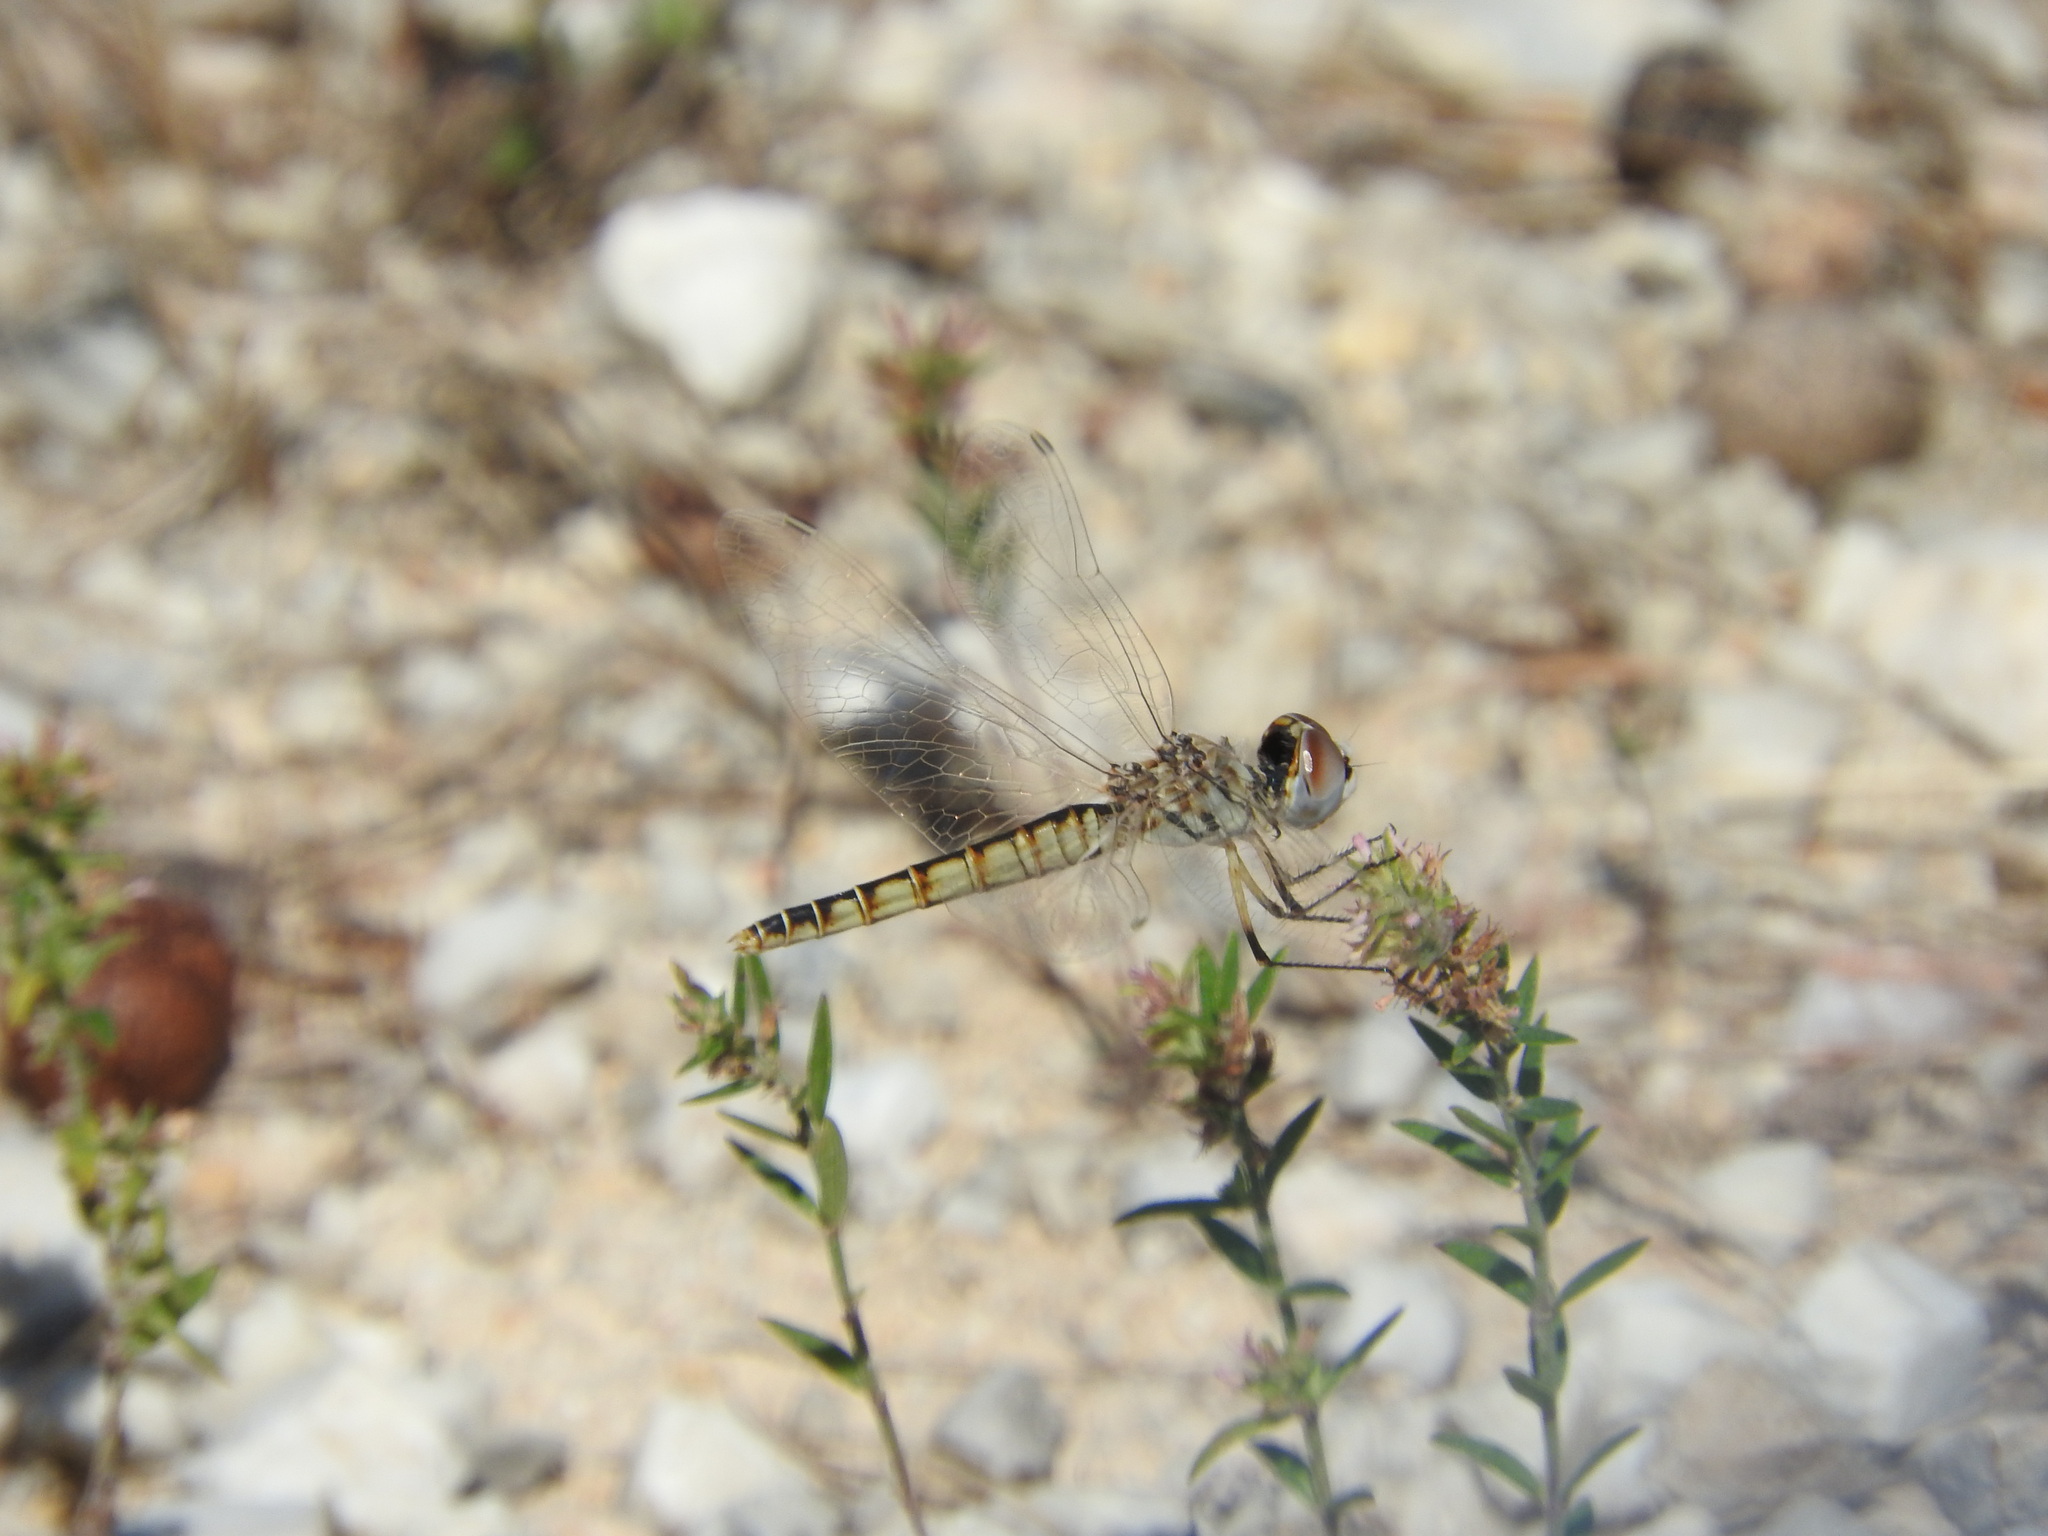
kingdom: Animalia
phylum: Arthropoda
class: Insecta
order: Odonata
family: Libellulidae
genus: Selysiothemis
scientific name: Selysiothemis nigra
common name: Black pennant
